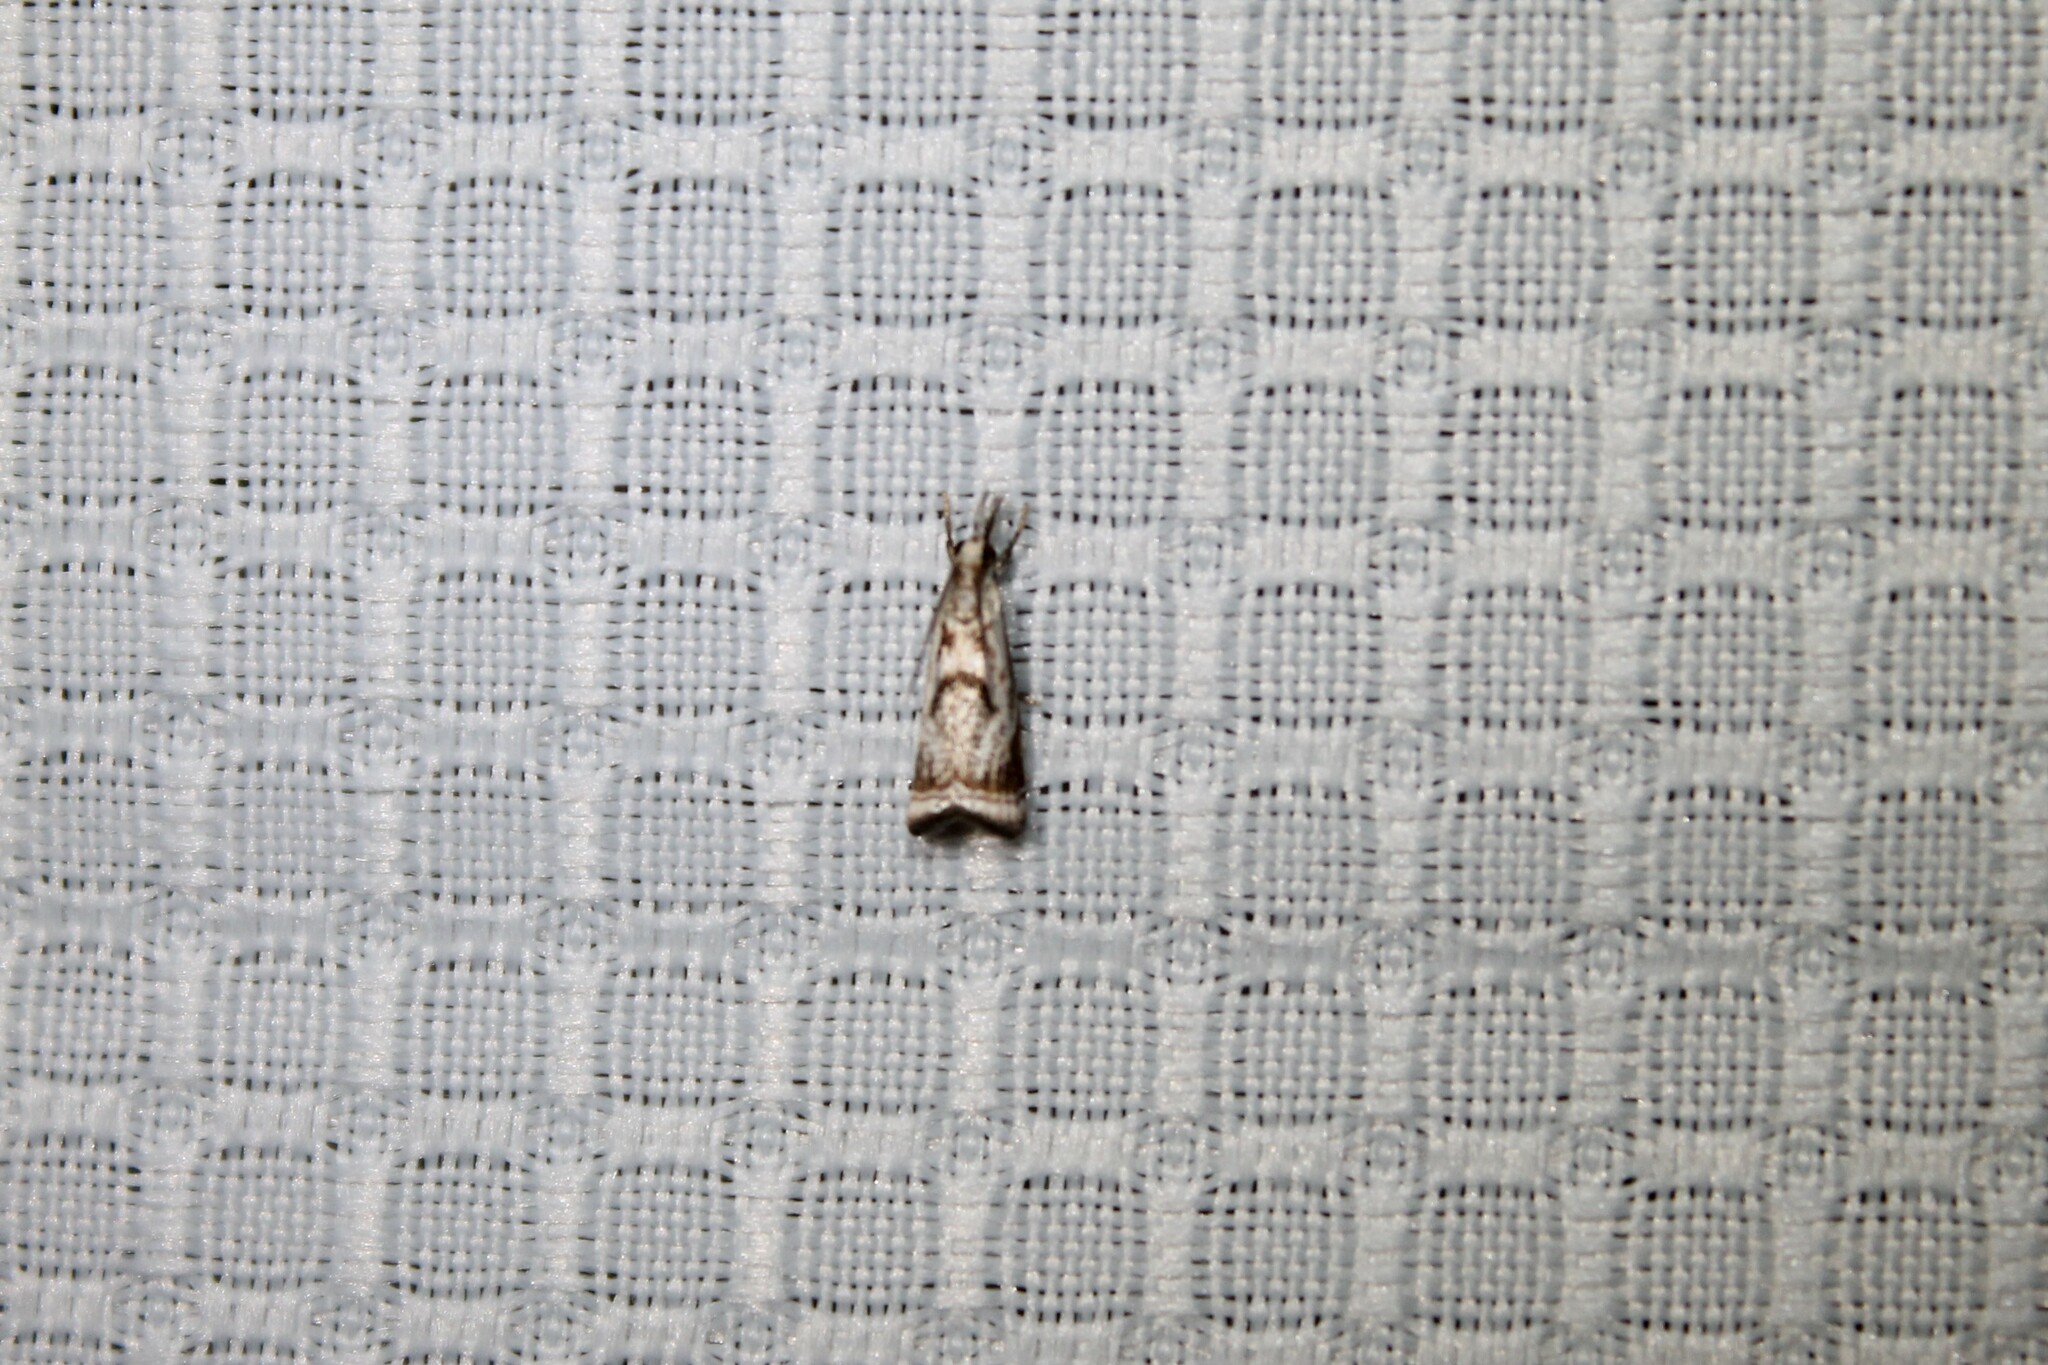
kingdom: Animalia
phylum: Arthropoda
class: Insecta
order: Lepidoptera
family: Crambidae
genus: Microcrambus
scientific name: Microcrambus elegans
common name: Elegant grass-veneer
